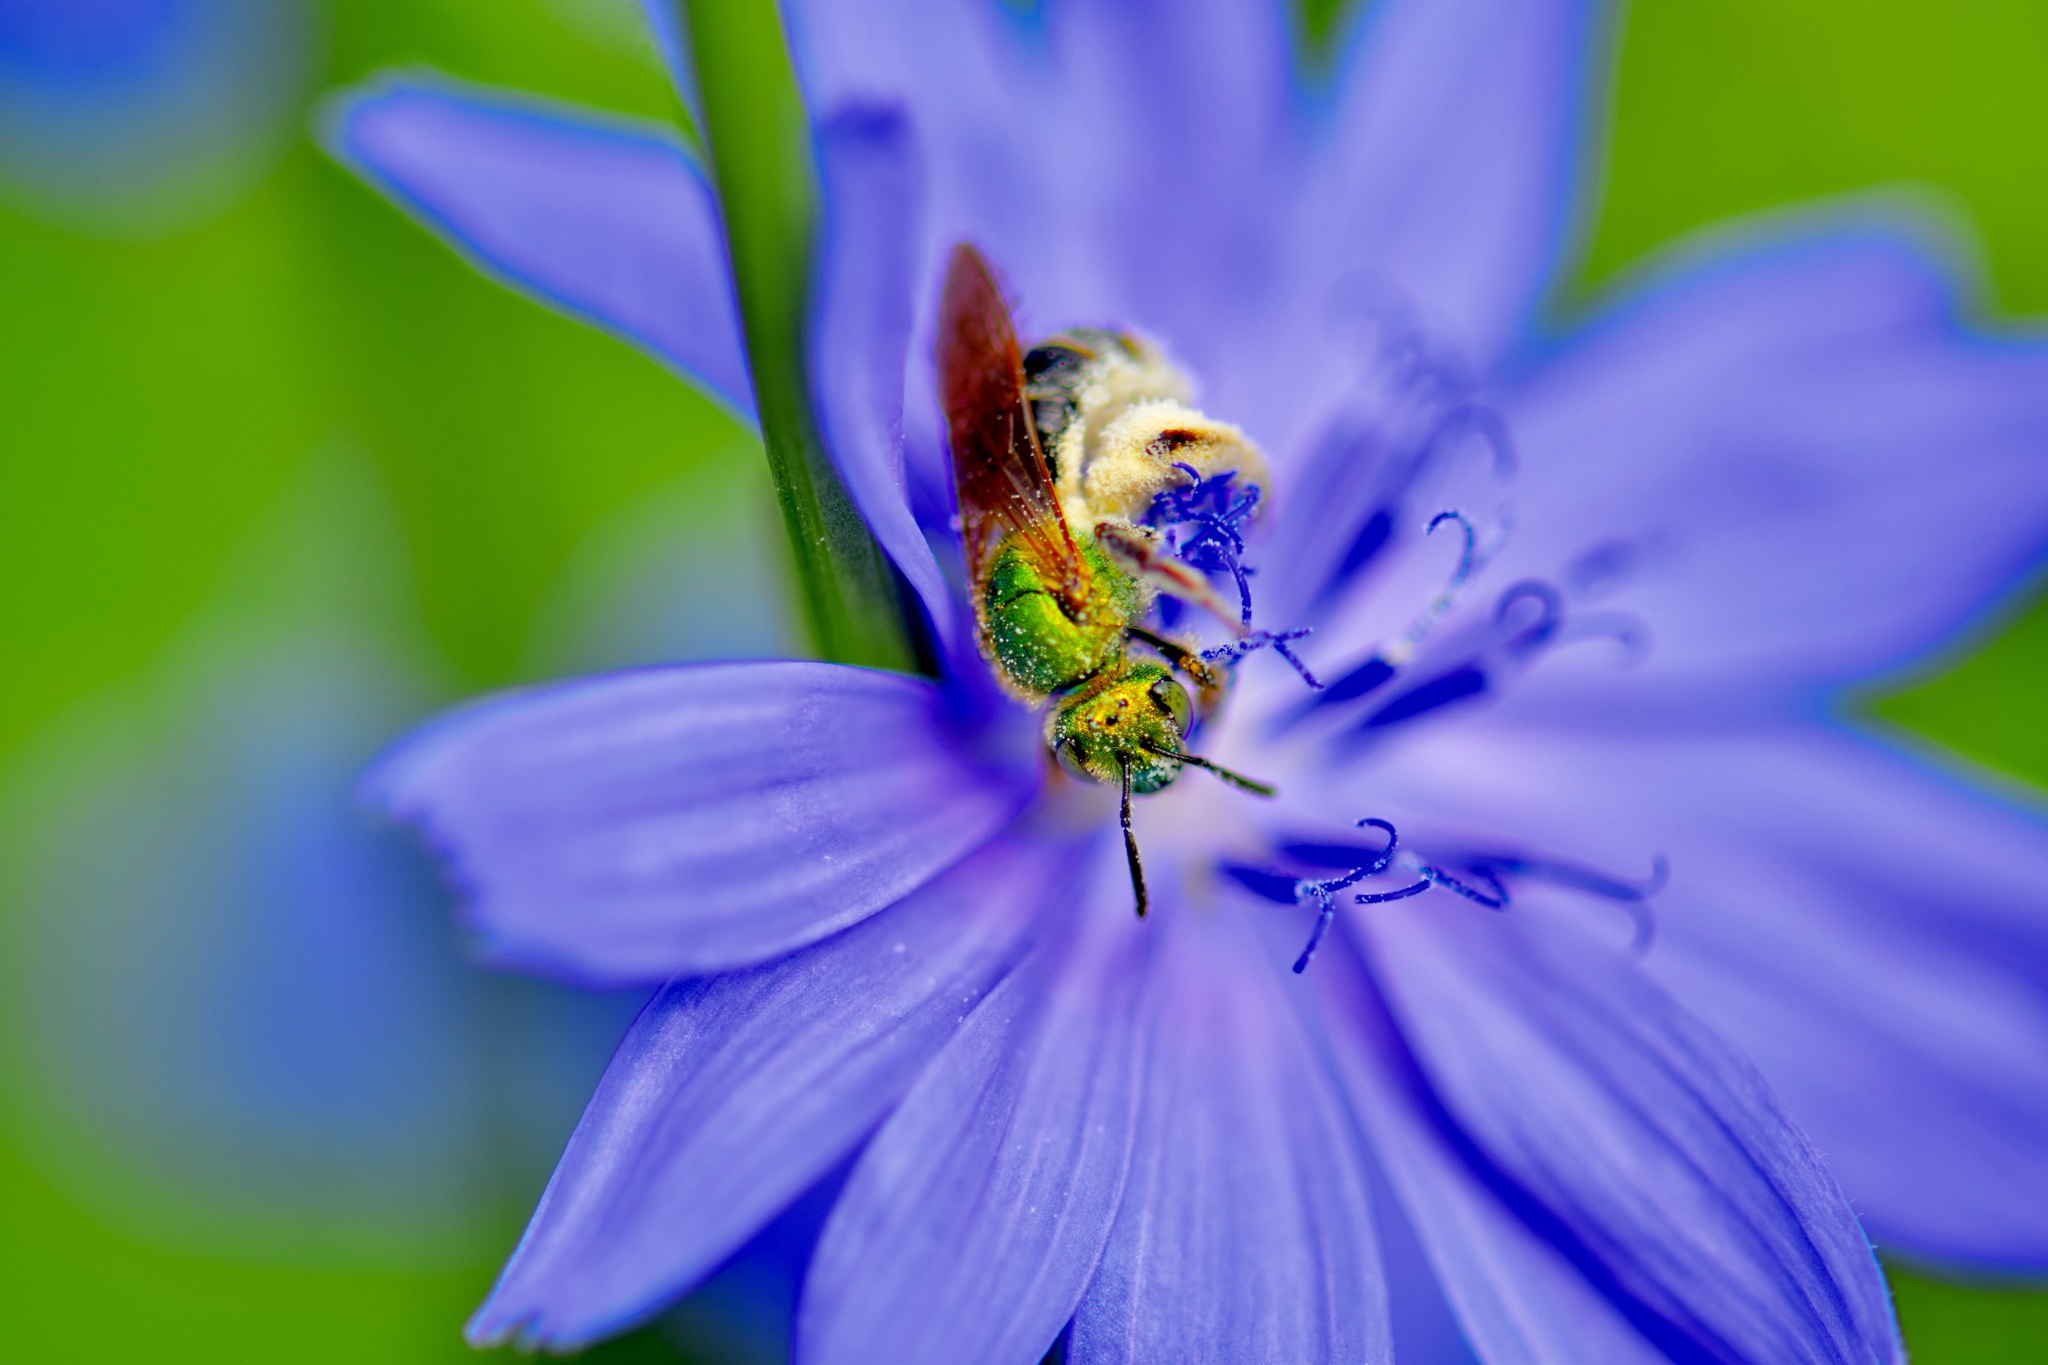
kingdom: Animalia
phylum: Arthropoda
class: Insecta
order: Hymenoptera
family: Halictidae
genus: Agapostemon
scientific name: Agapostemon virescens
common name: Bicolored striped sweat bee
